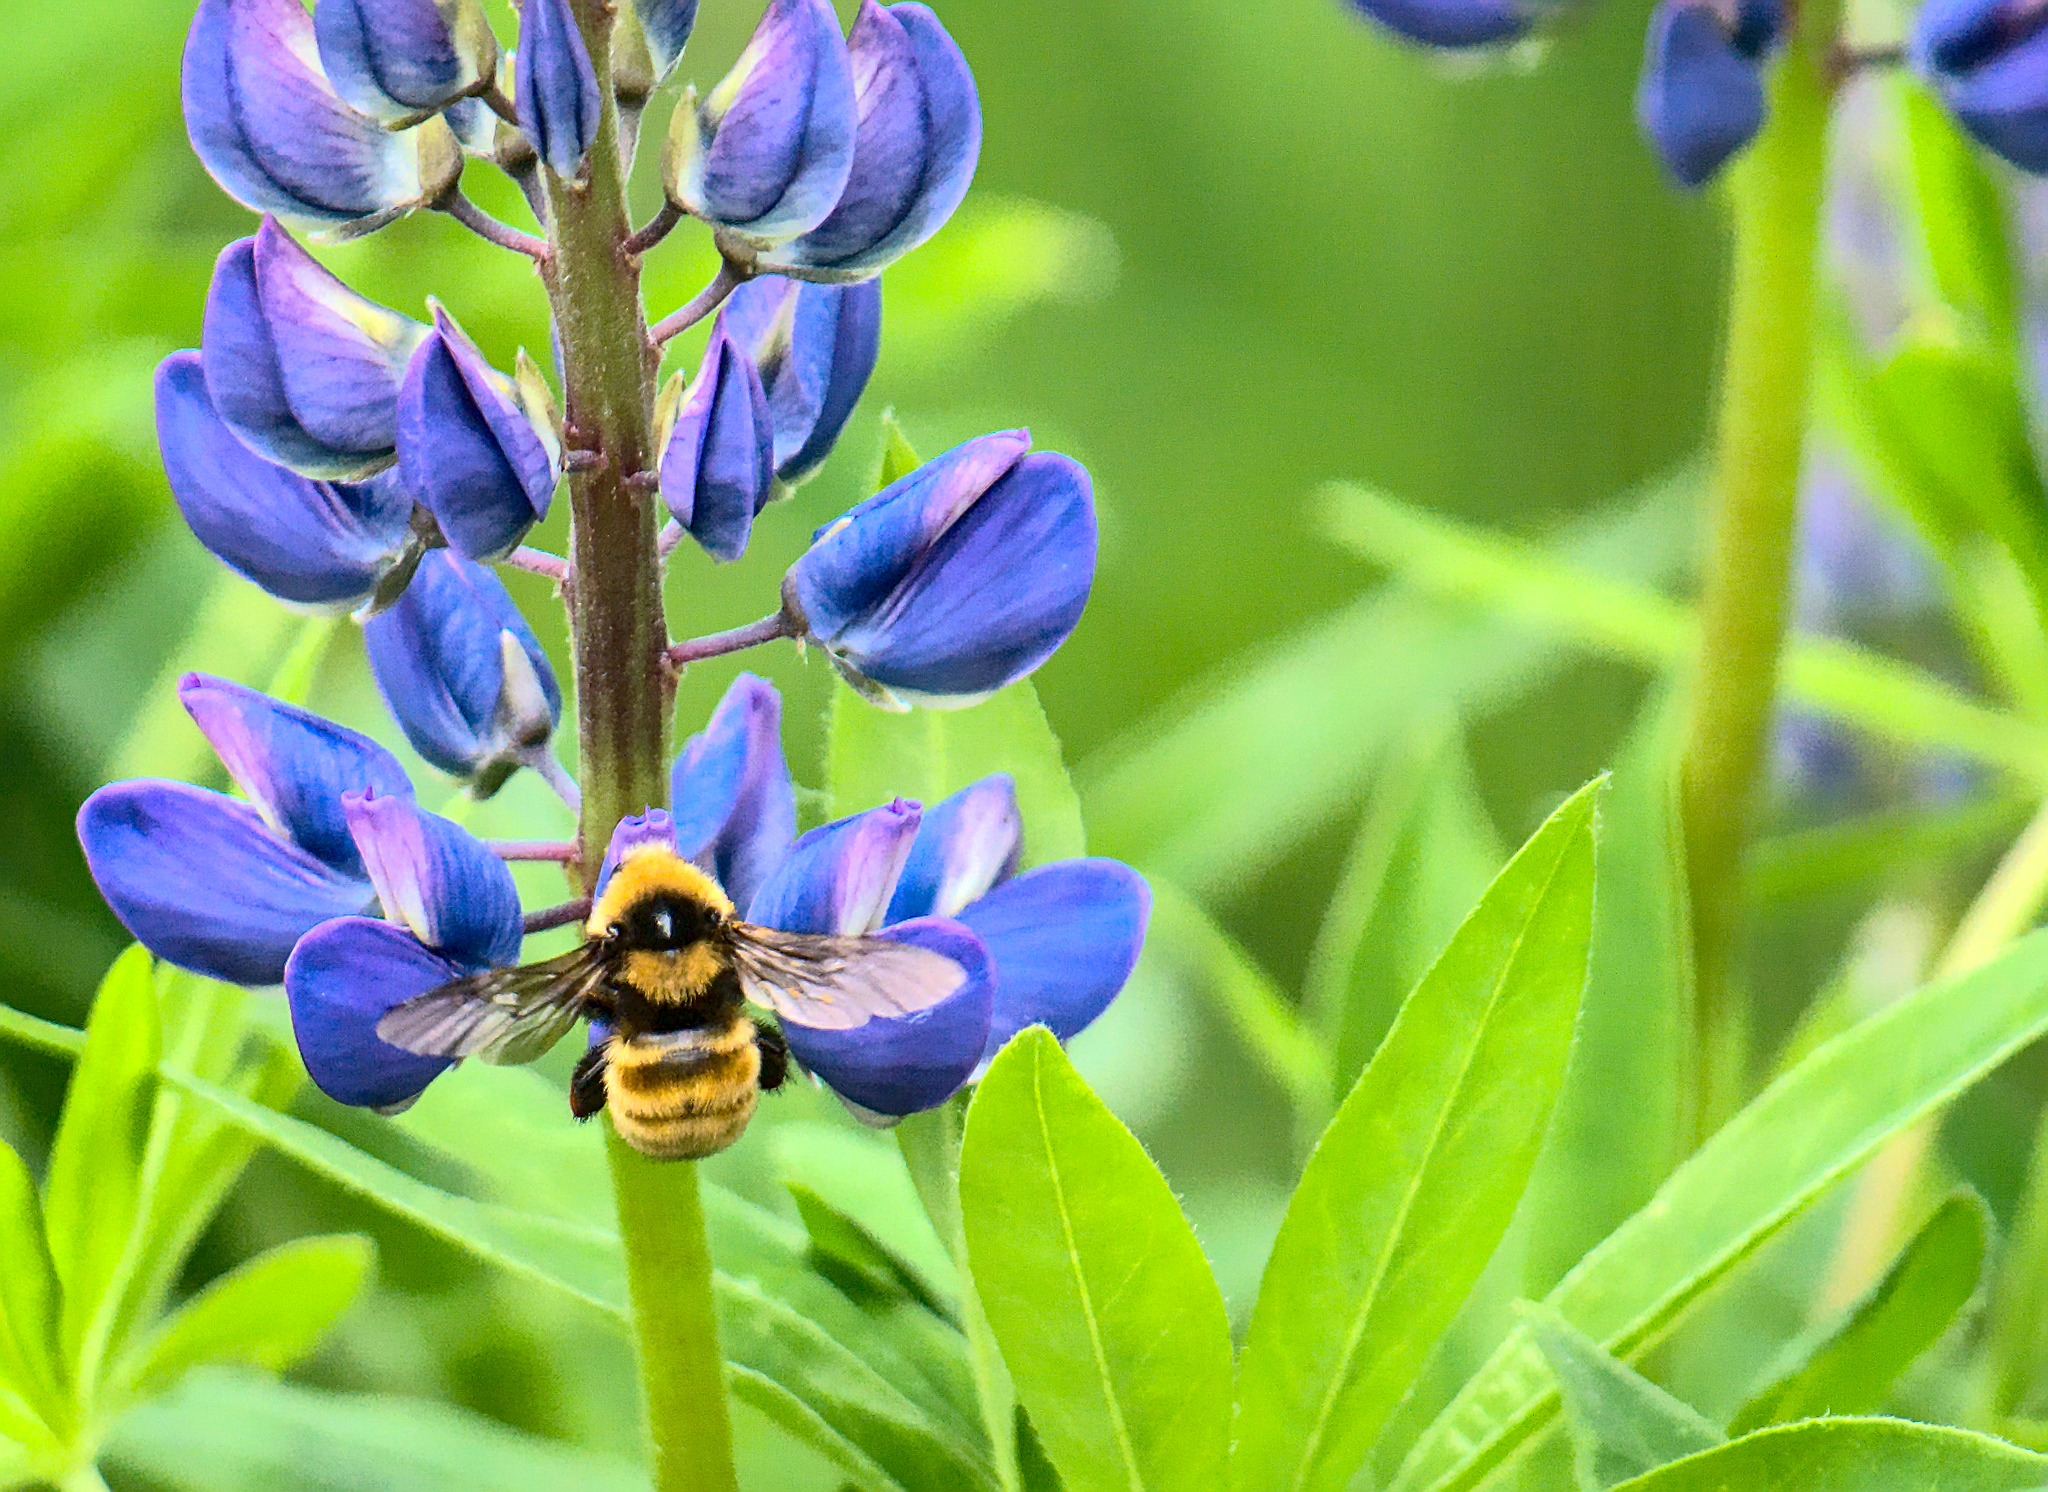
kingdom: Animalia
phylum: Arthropoda
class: Insecta
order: Hymenoptera
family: Apidae
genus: Bombus
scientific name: Bombus borealis
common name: Northern amber bumble bee
